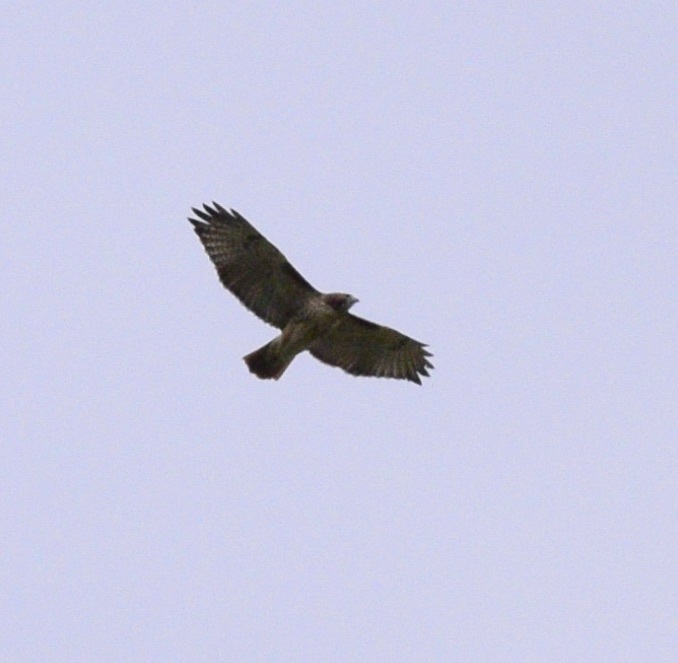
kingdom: Animalia
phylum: Chordata
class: Aves
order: Accipitriformes
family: Accipitridae
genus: Buteo
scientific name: Buteo jamaicensis
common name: Red-tailed hawk
